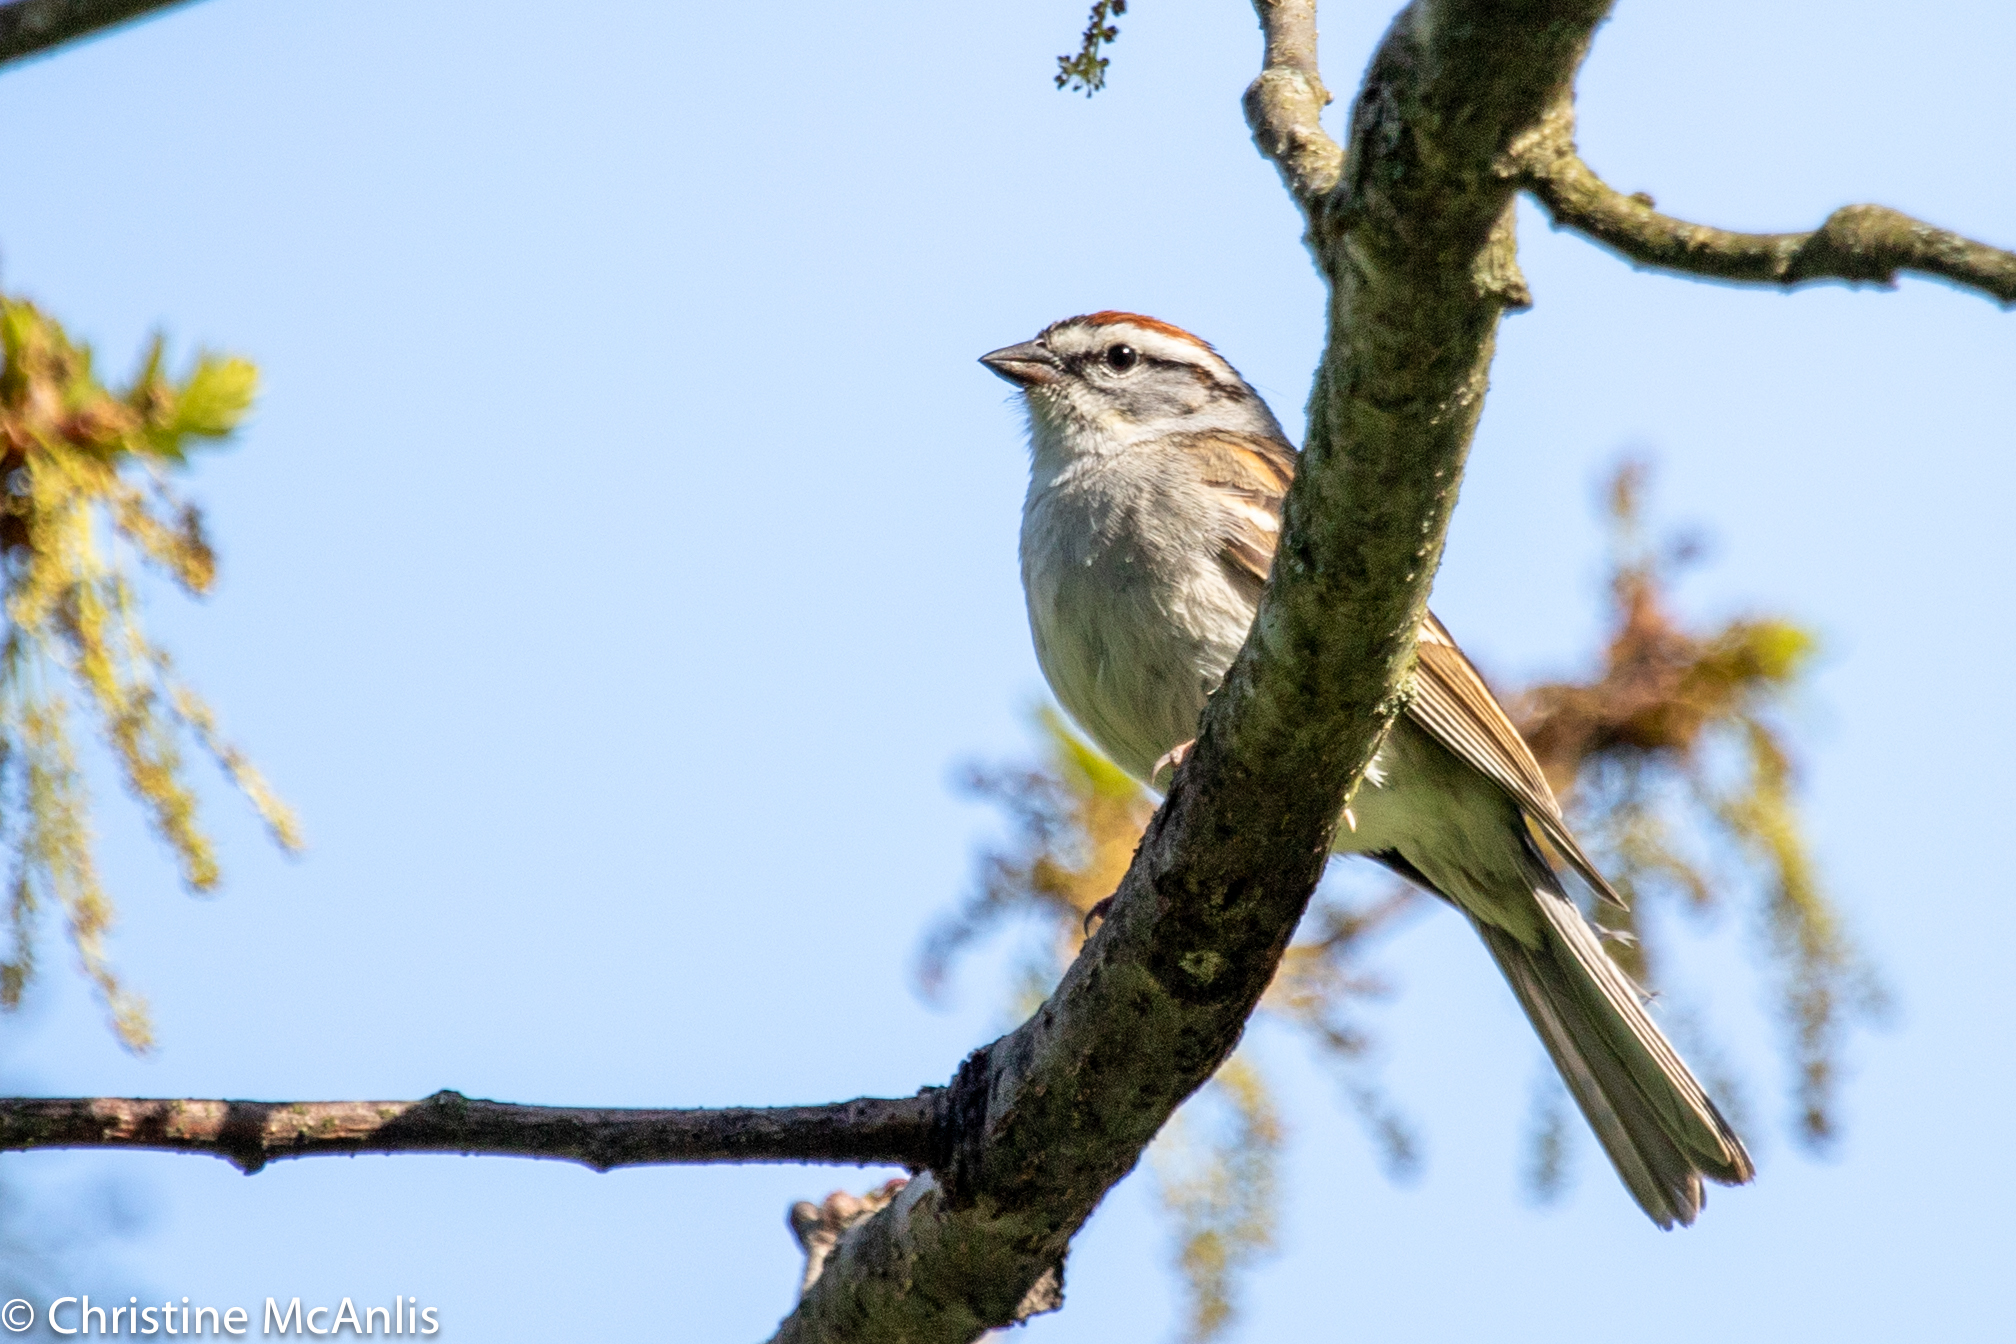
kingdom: Animalia
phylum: Chordata
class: Aves
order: Passeriformes
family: Passerellidae
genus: Spizella
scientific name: Spizella passerina
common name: Chipping sparrow
